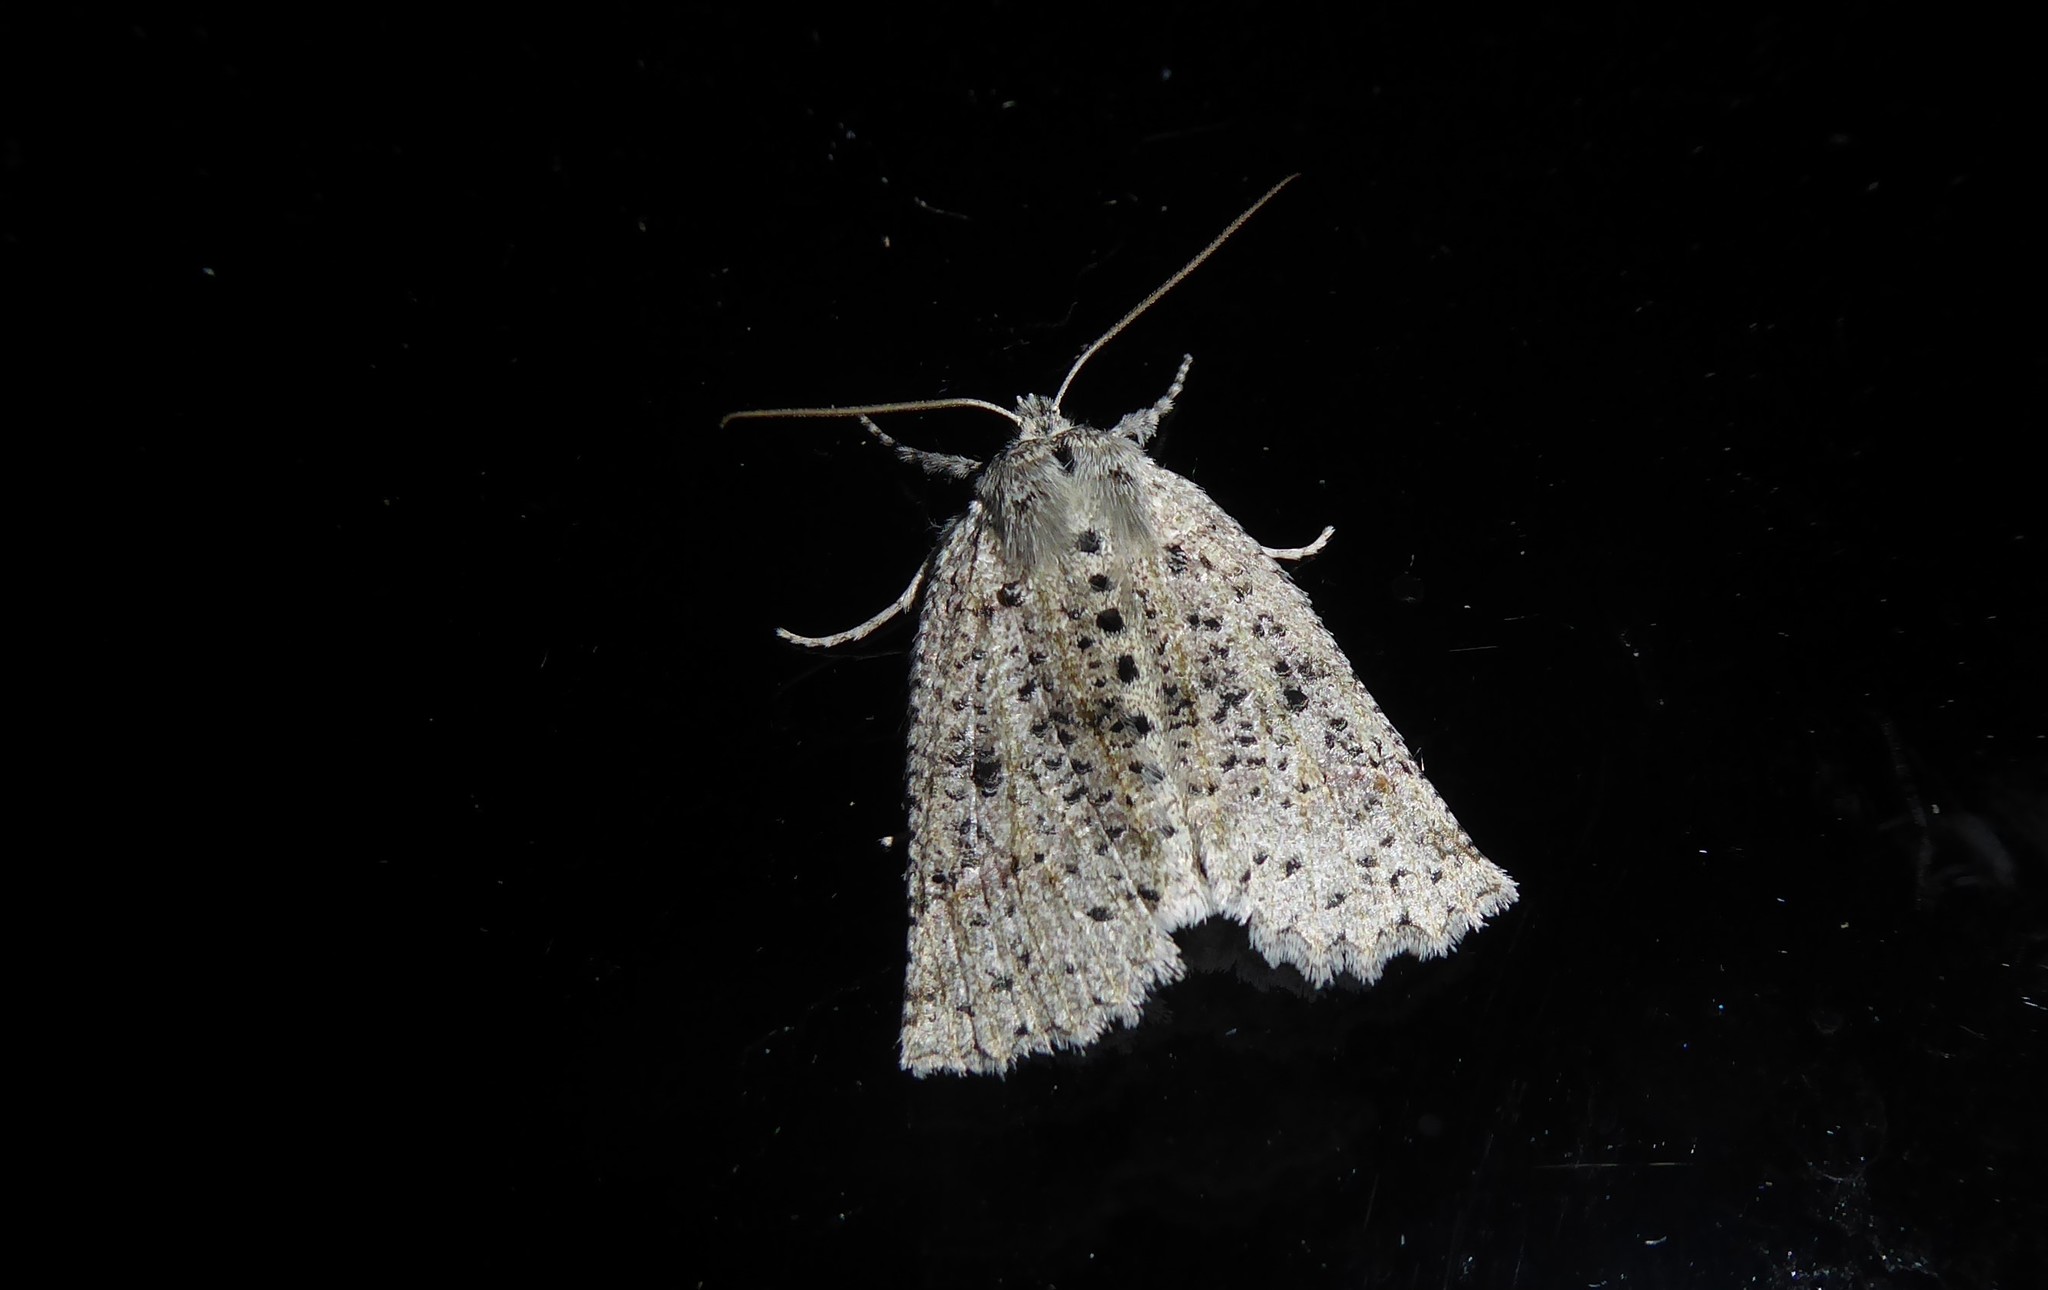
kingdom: Animalia
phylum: Arthropoda
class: Insecta
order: Lepidoptera
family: Geometridae
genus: Declana
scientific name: Declana floccosa
